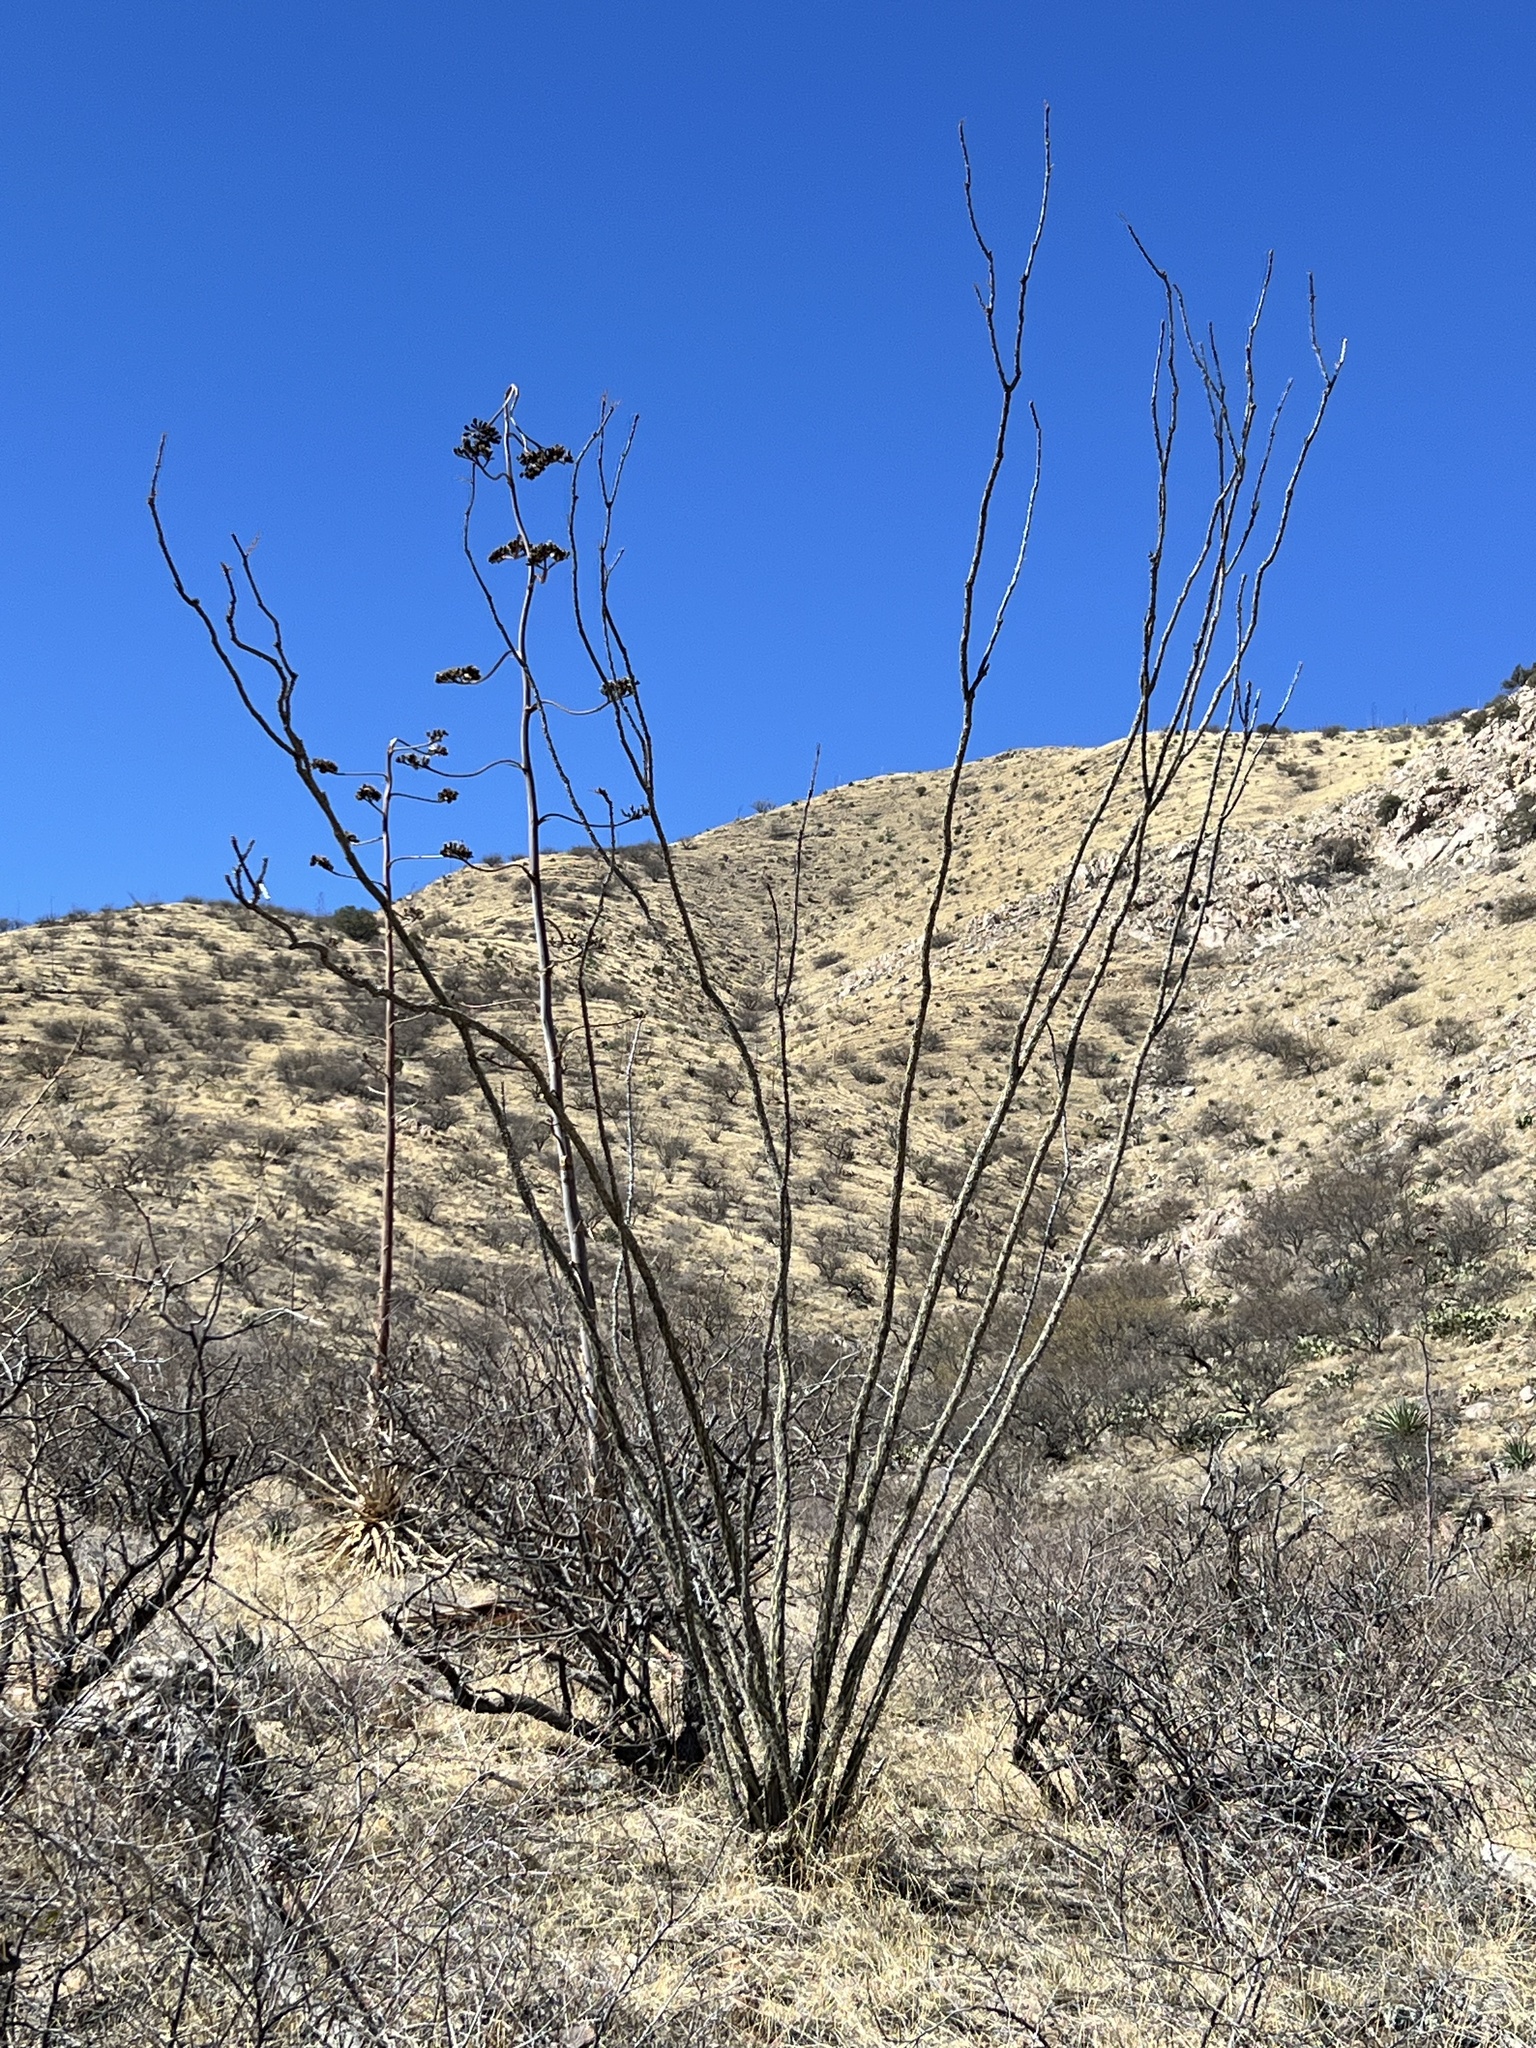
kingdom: Plantae
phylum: Tracheophyta
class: Magnoliopsida
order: Ericales
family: Fouquieriaceae
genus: Fouquieria
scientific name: Fouquieria splendens
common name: Vine-cactus
